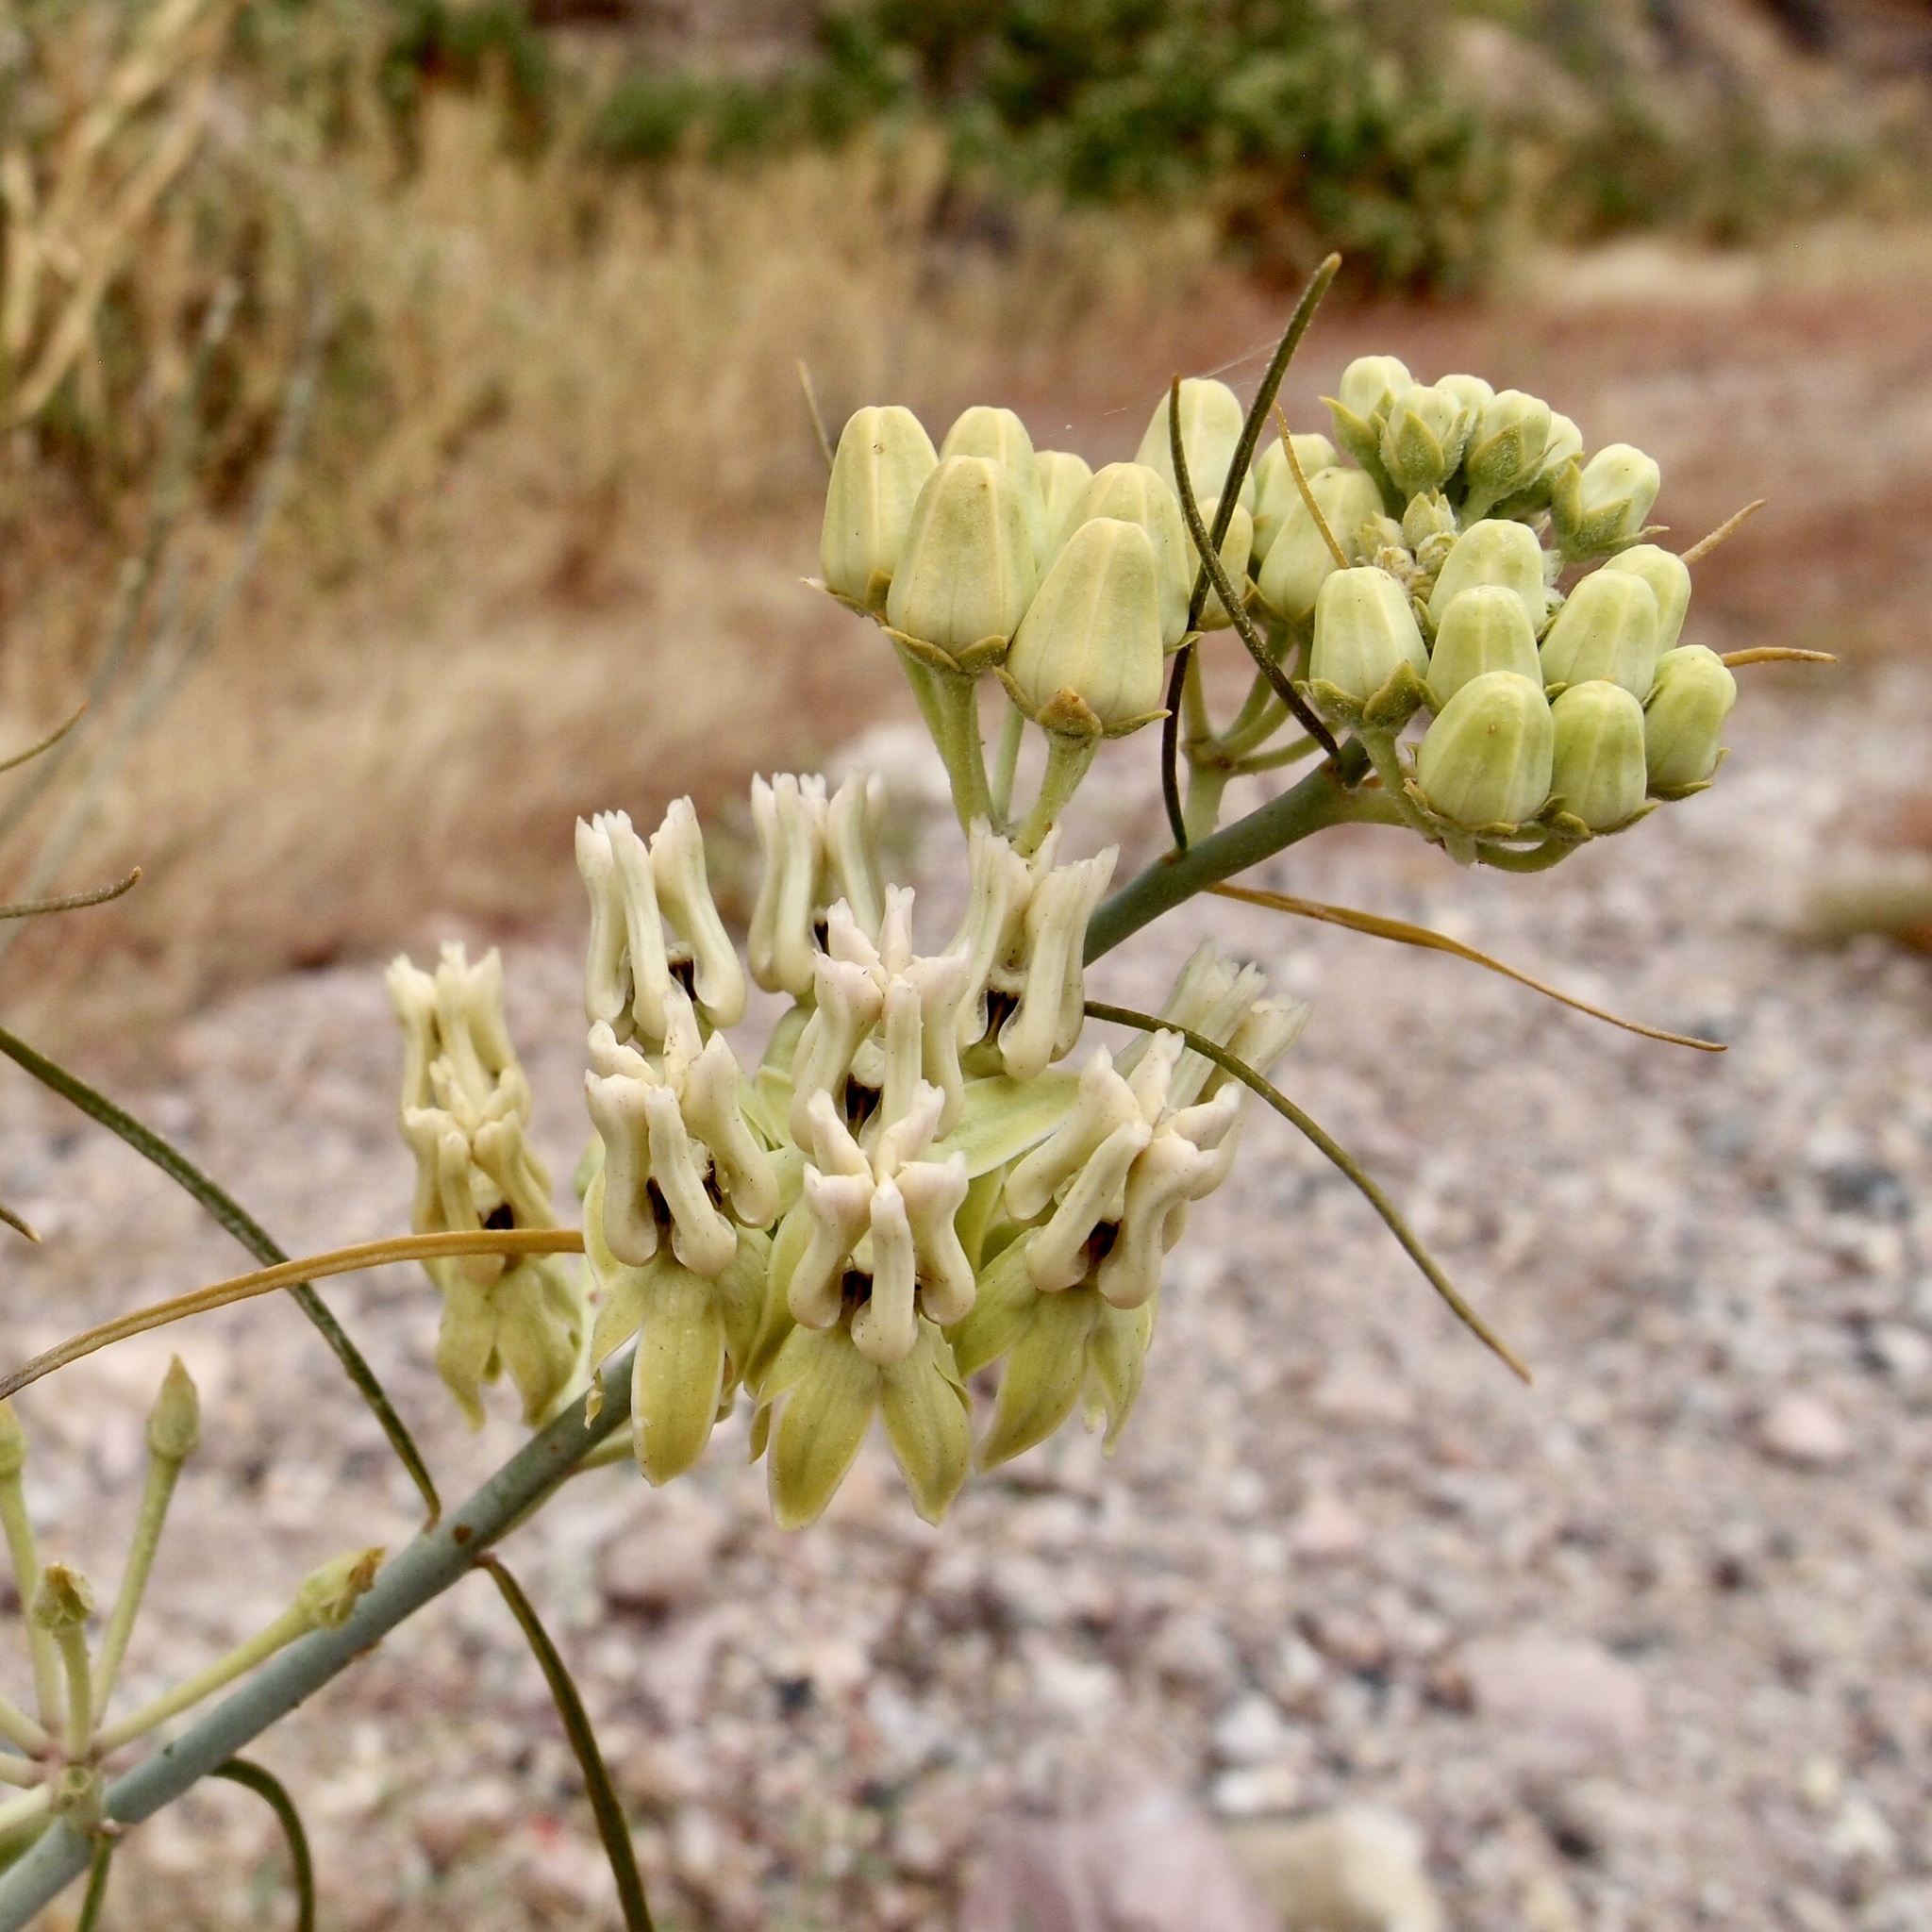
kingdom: Plantae
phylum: Tracheophyta
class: Magnoliopsida
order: Gentianales
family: Apocynaceae
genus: Asclepias
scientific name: Asclepias subulata
